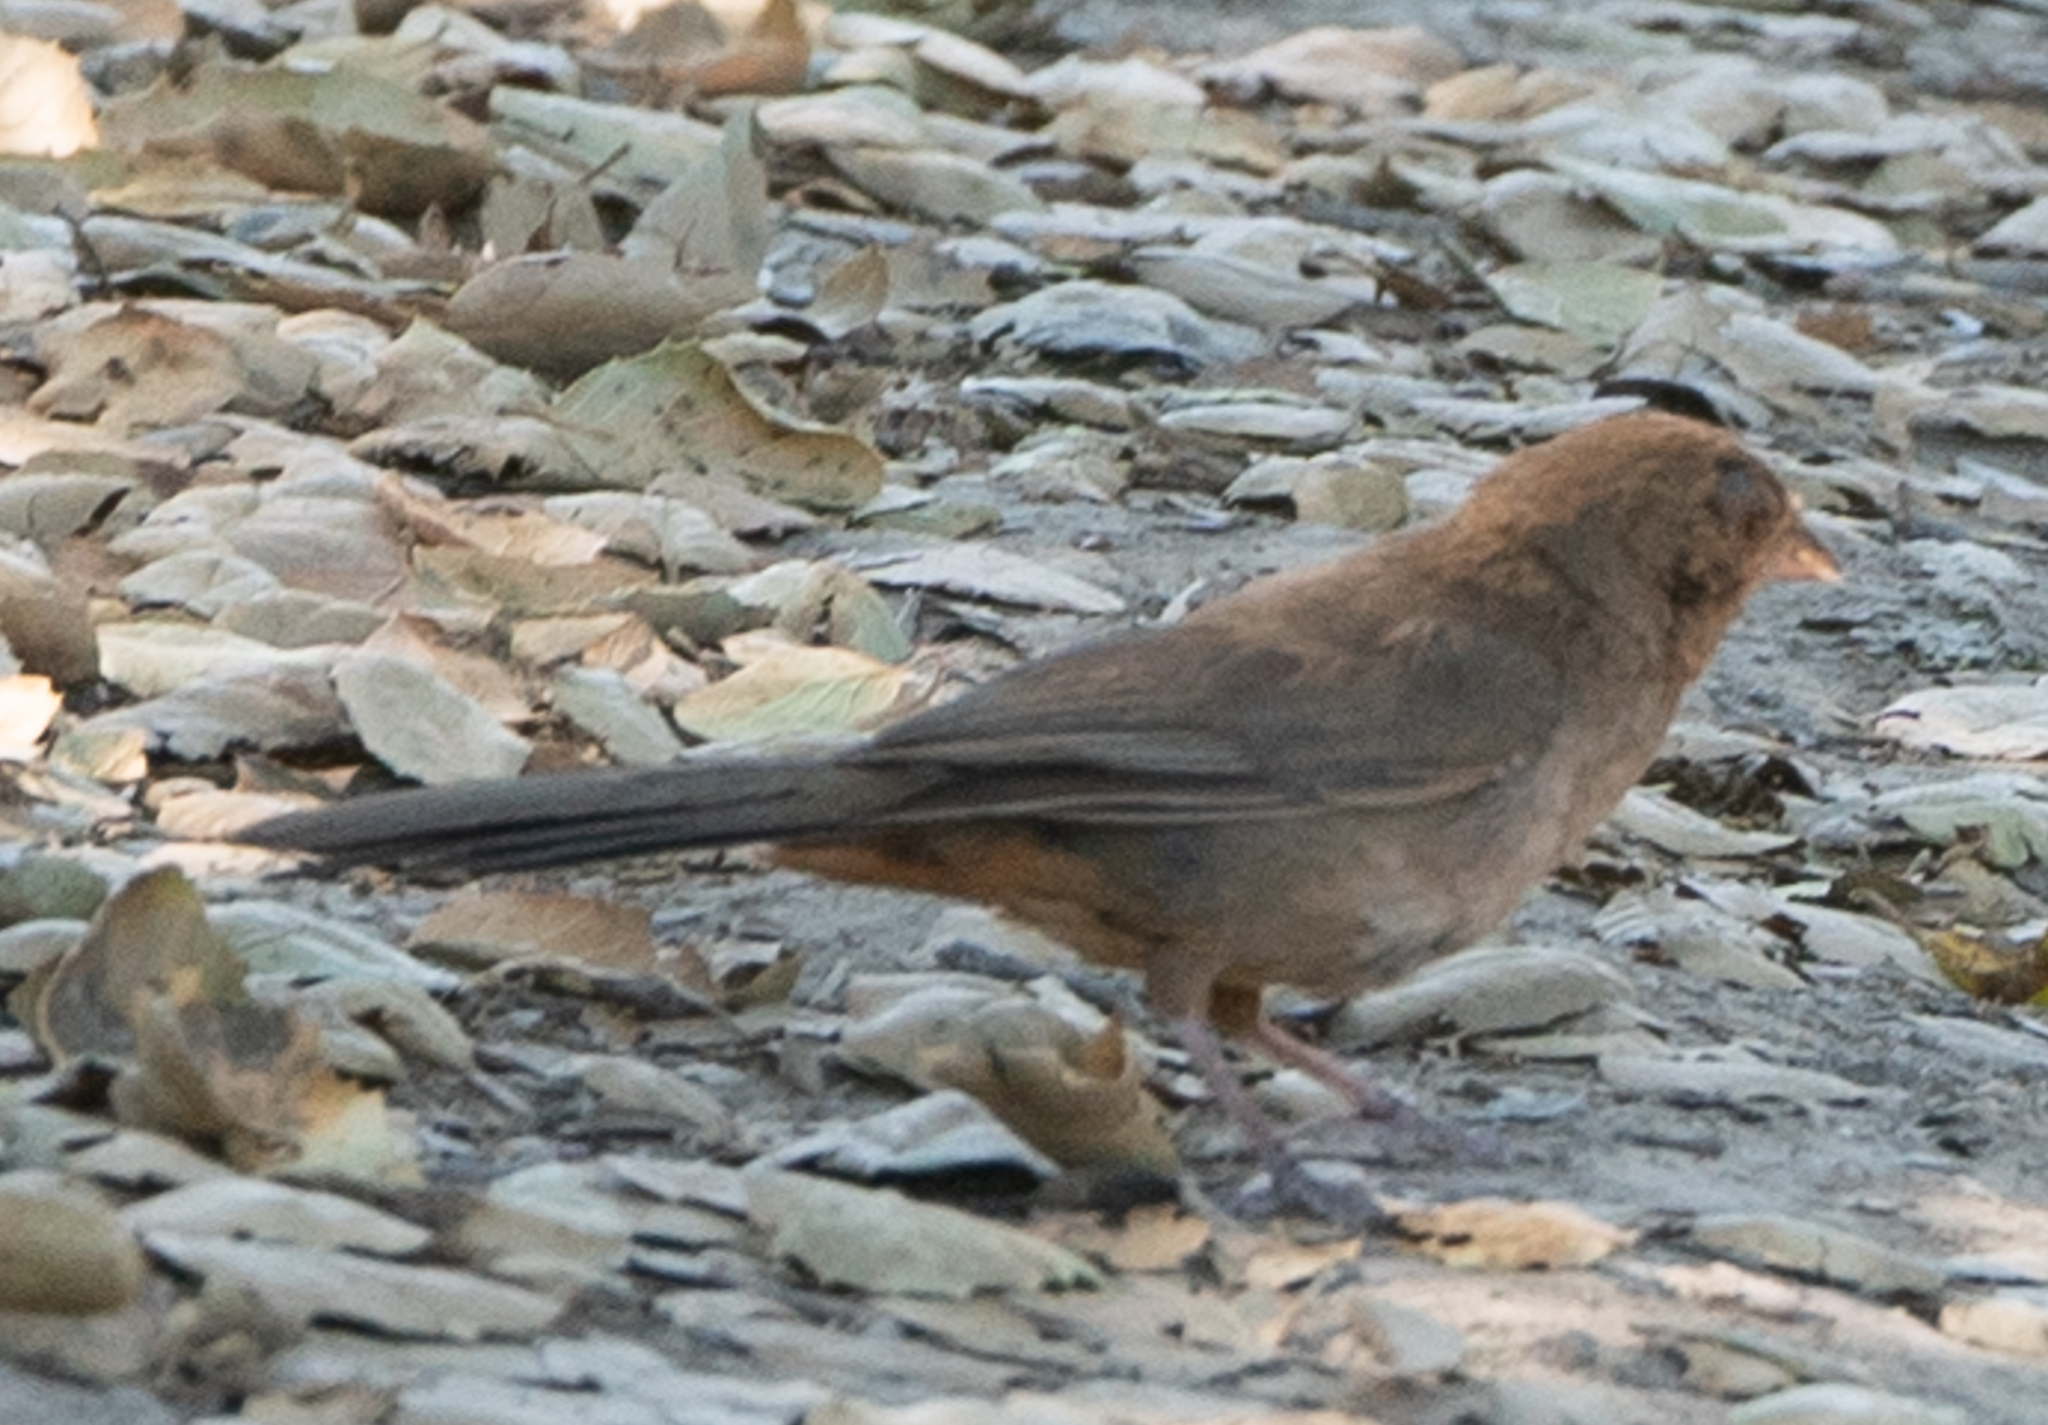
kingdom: Animalia
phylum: Chordata
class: Aves
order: Passeriformes
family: Passerellidae
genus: Melozone
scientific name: Melozone crissalis
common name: California towhee
